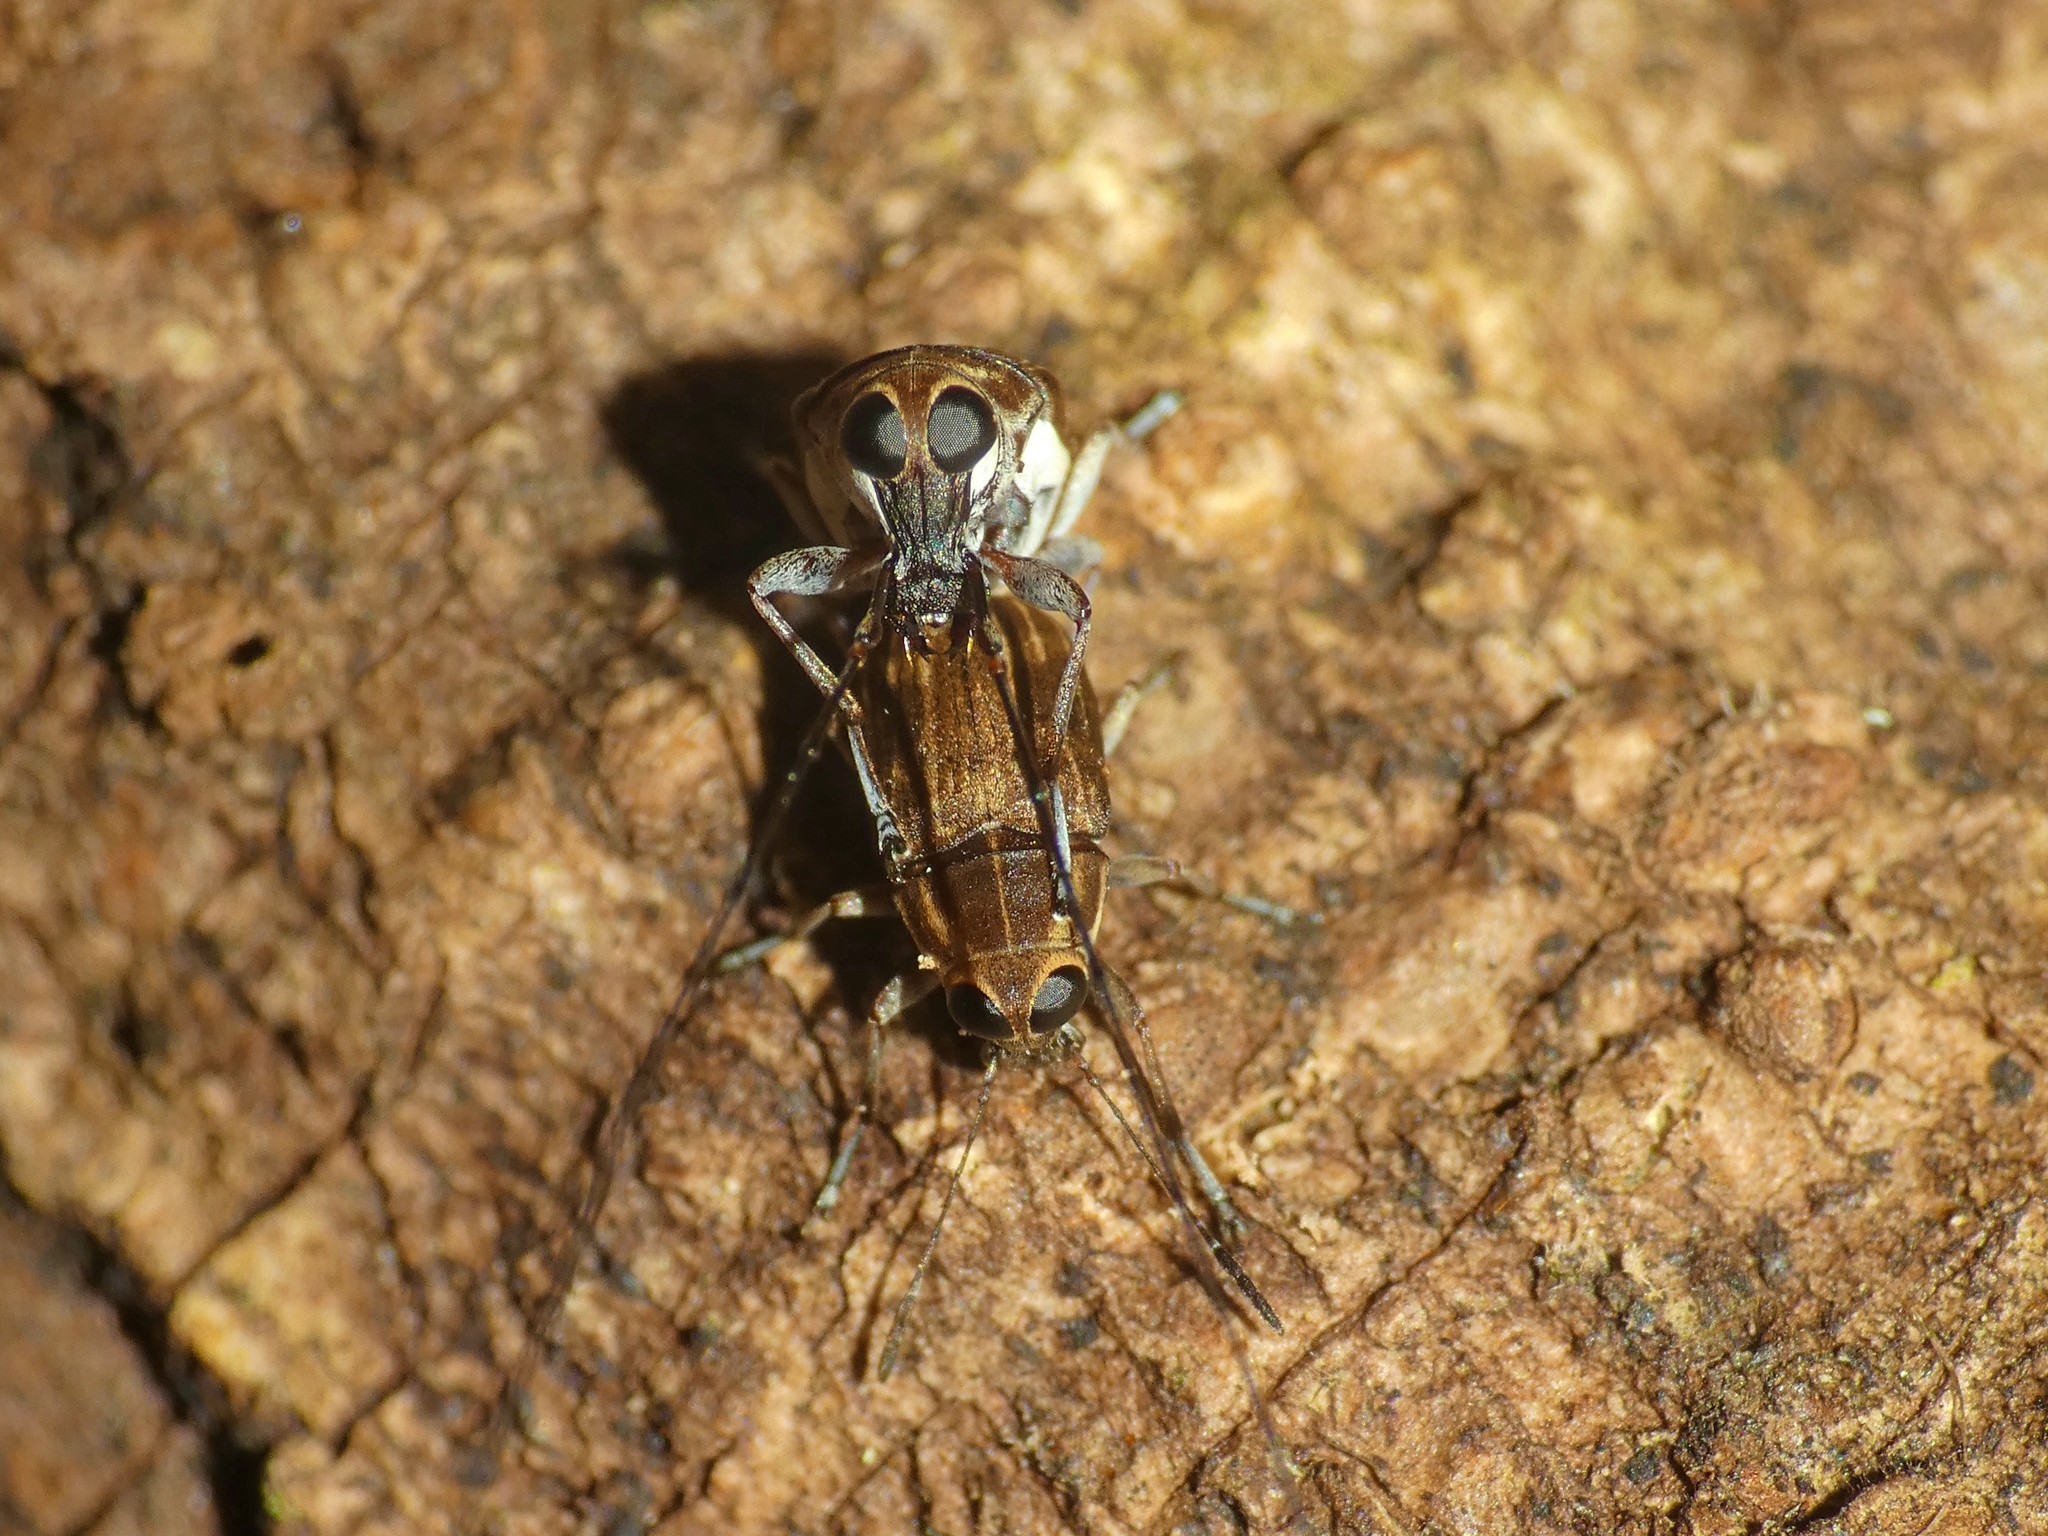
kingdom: Animalia
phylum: Arthropoda
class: Insecta
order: Coleoptera
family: Anthribidae
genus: Hucus
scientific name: Hucus persimilis
